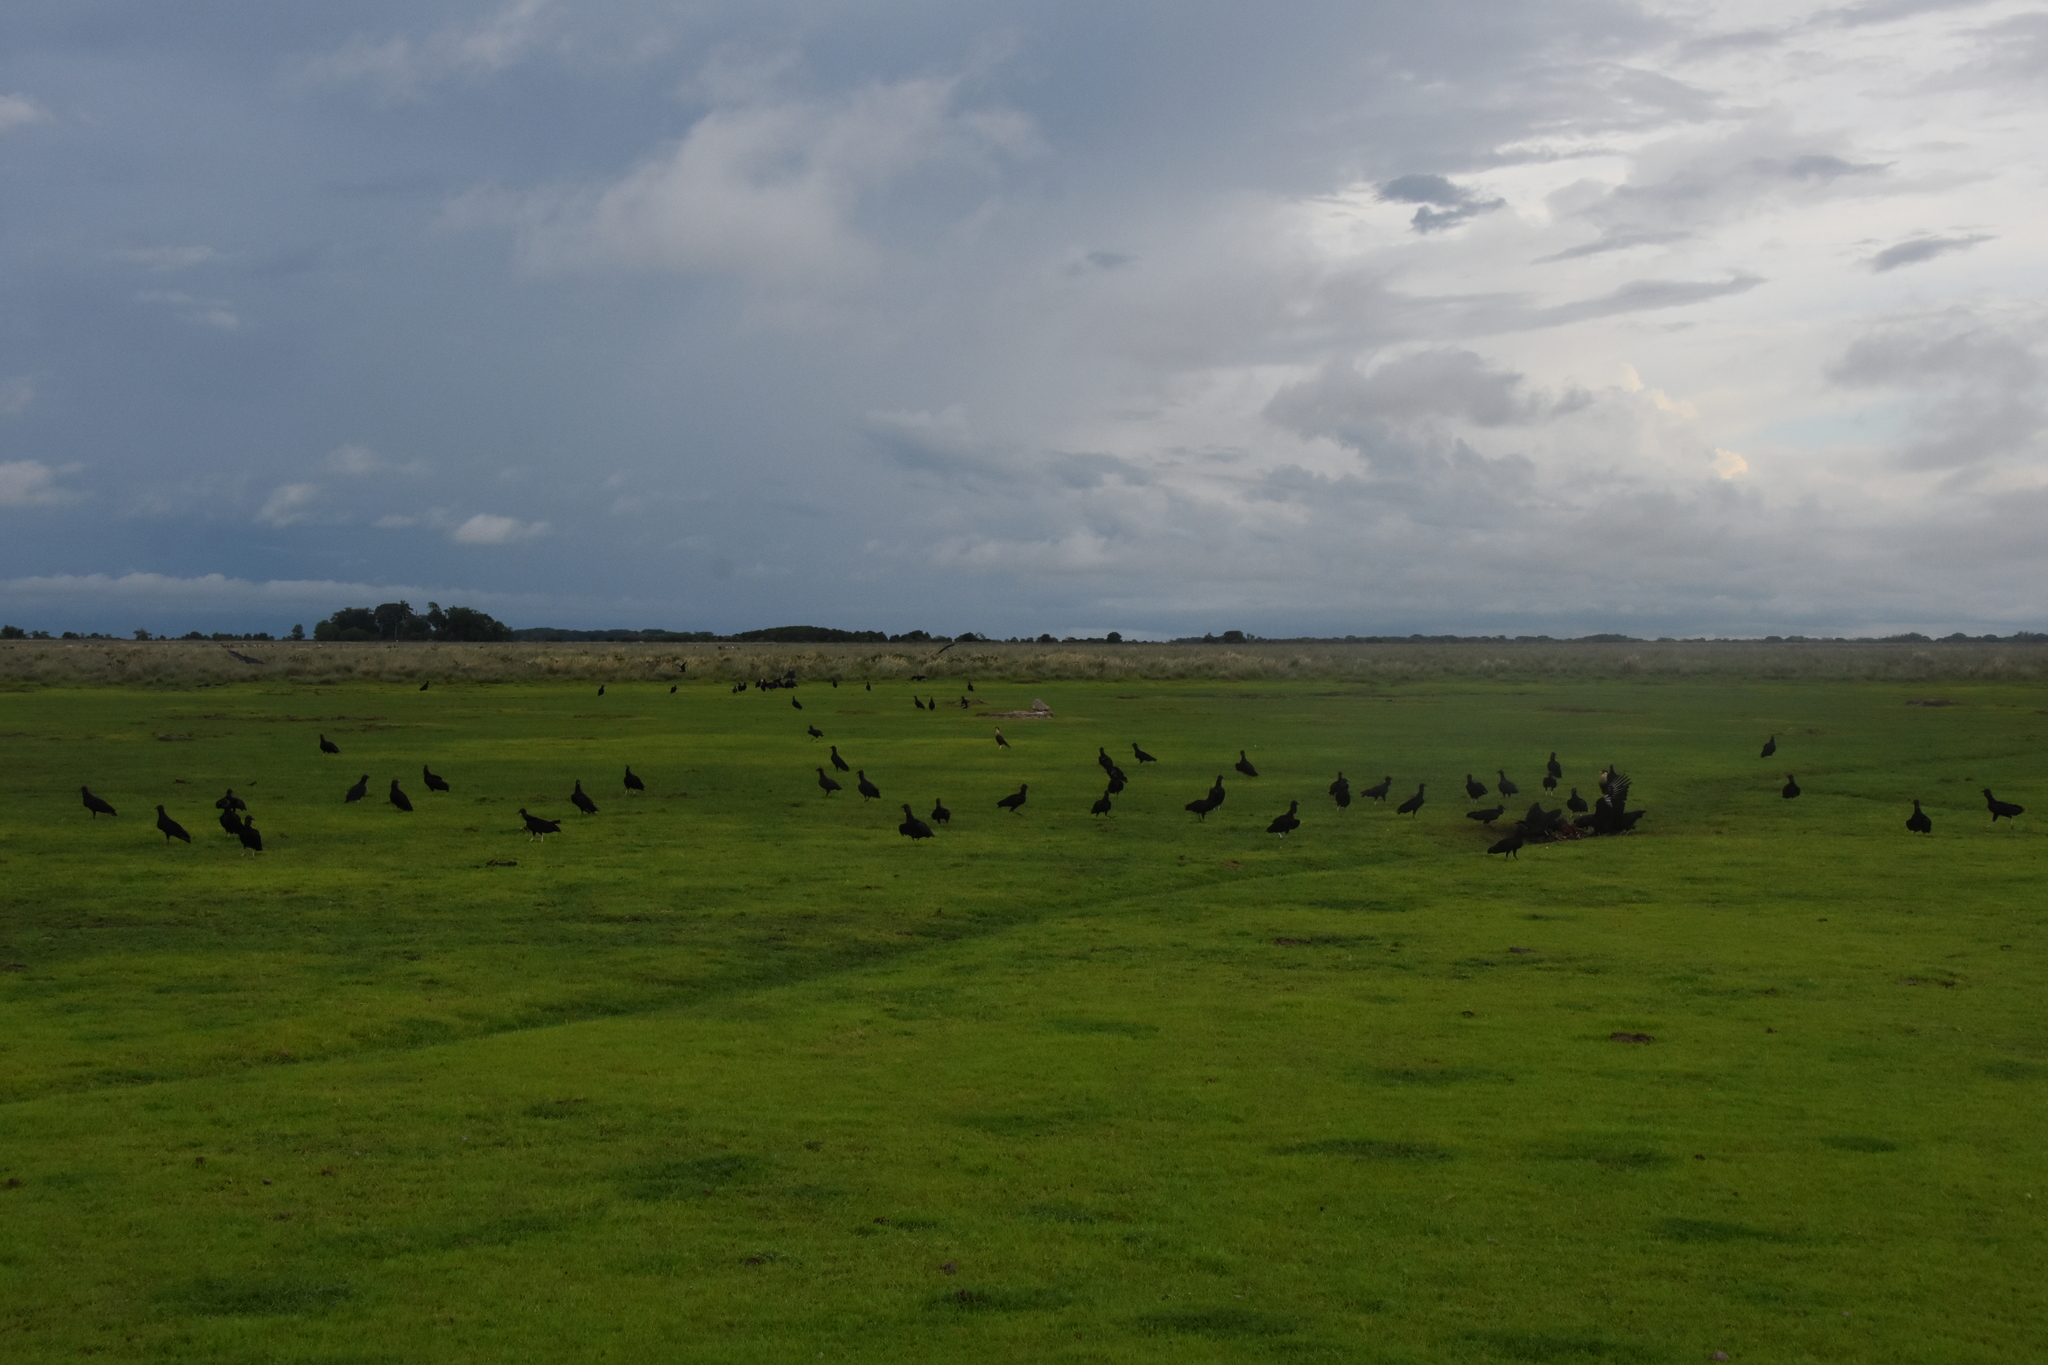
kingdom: Animalia
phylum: Chordata
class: Aves
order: Accipitriformes
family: Cathartidae
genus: Coragyps
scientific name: Coragyps atratus
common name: Black vulture
